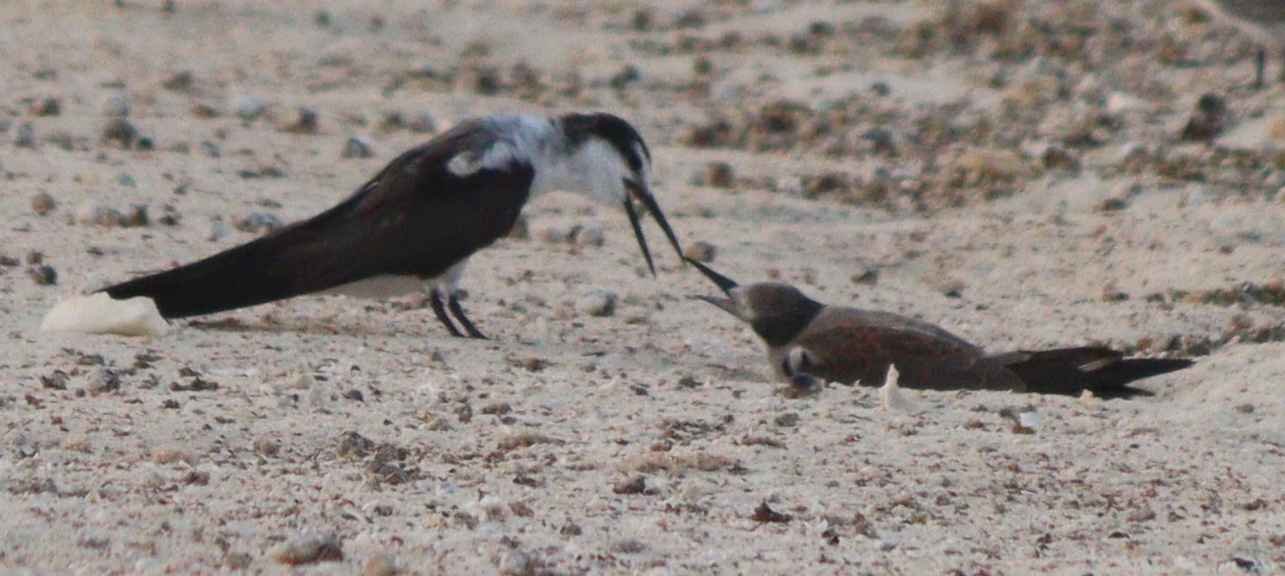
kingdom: Animalia
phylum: Chordata
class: Aves
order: Charadriiformes
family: Laridae
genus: Onychoprion
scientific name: Onychoprion anaethetus
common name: Bridled tern
